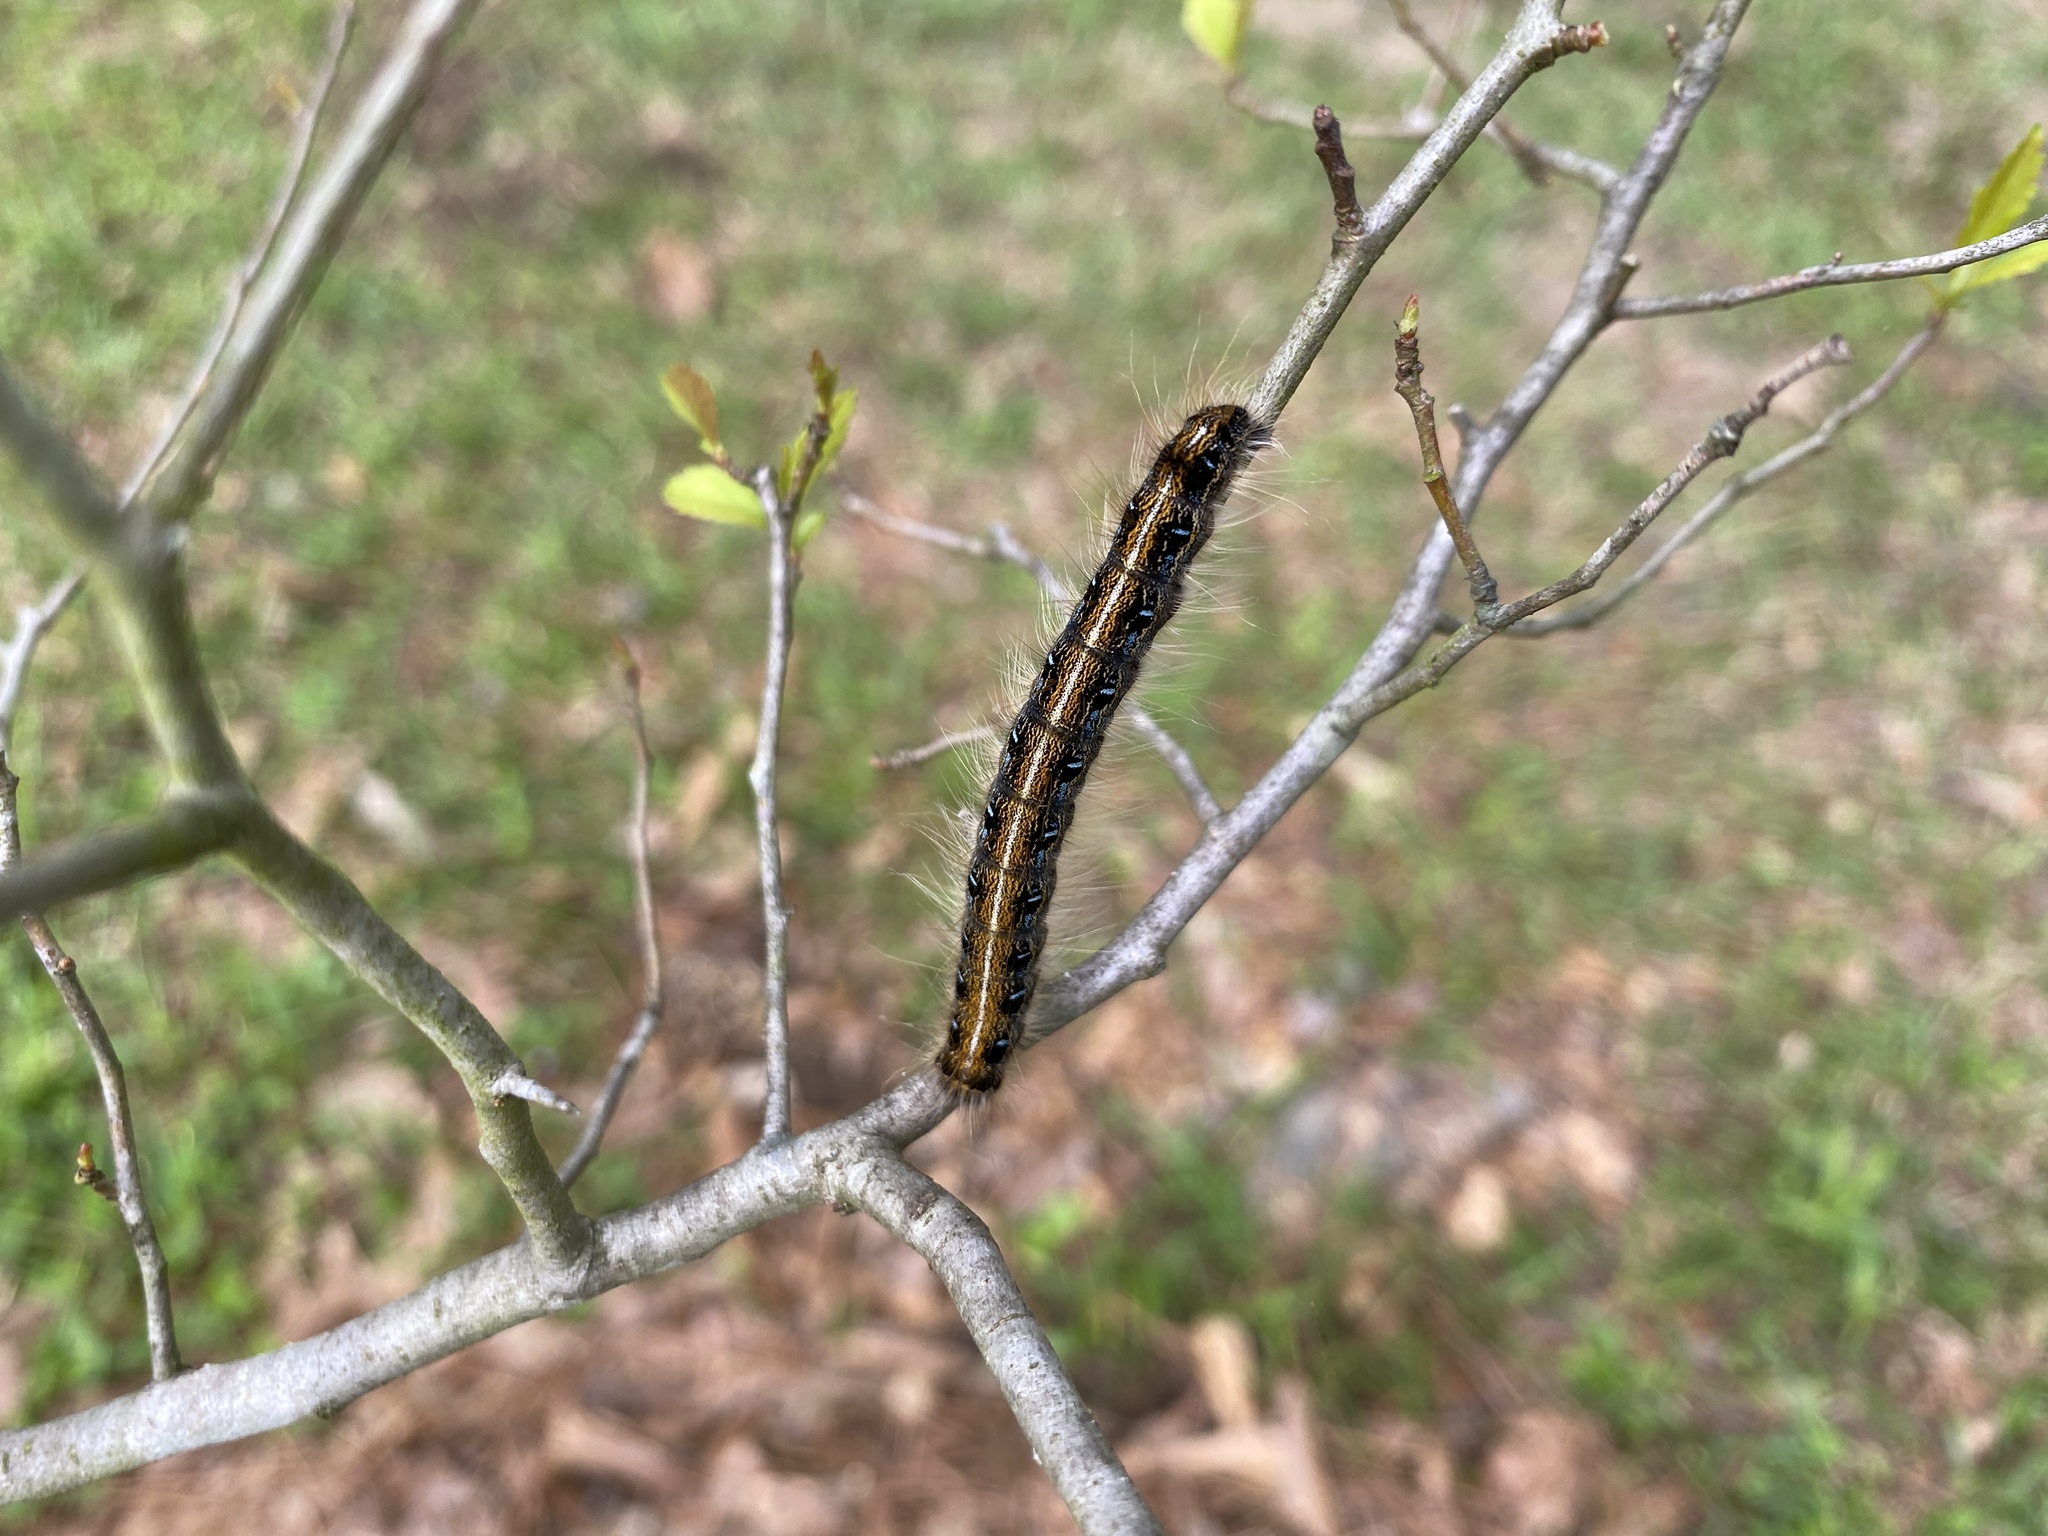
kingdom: Animalia
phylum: Arthropoda
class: Insecta
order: Lepidoptera
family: Lasiocampidae
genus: Malacosoma
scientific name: Malacosoma americana
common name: Eastern tent caterpillar moth
